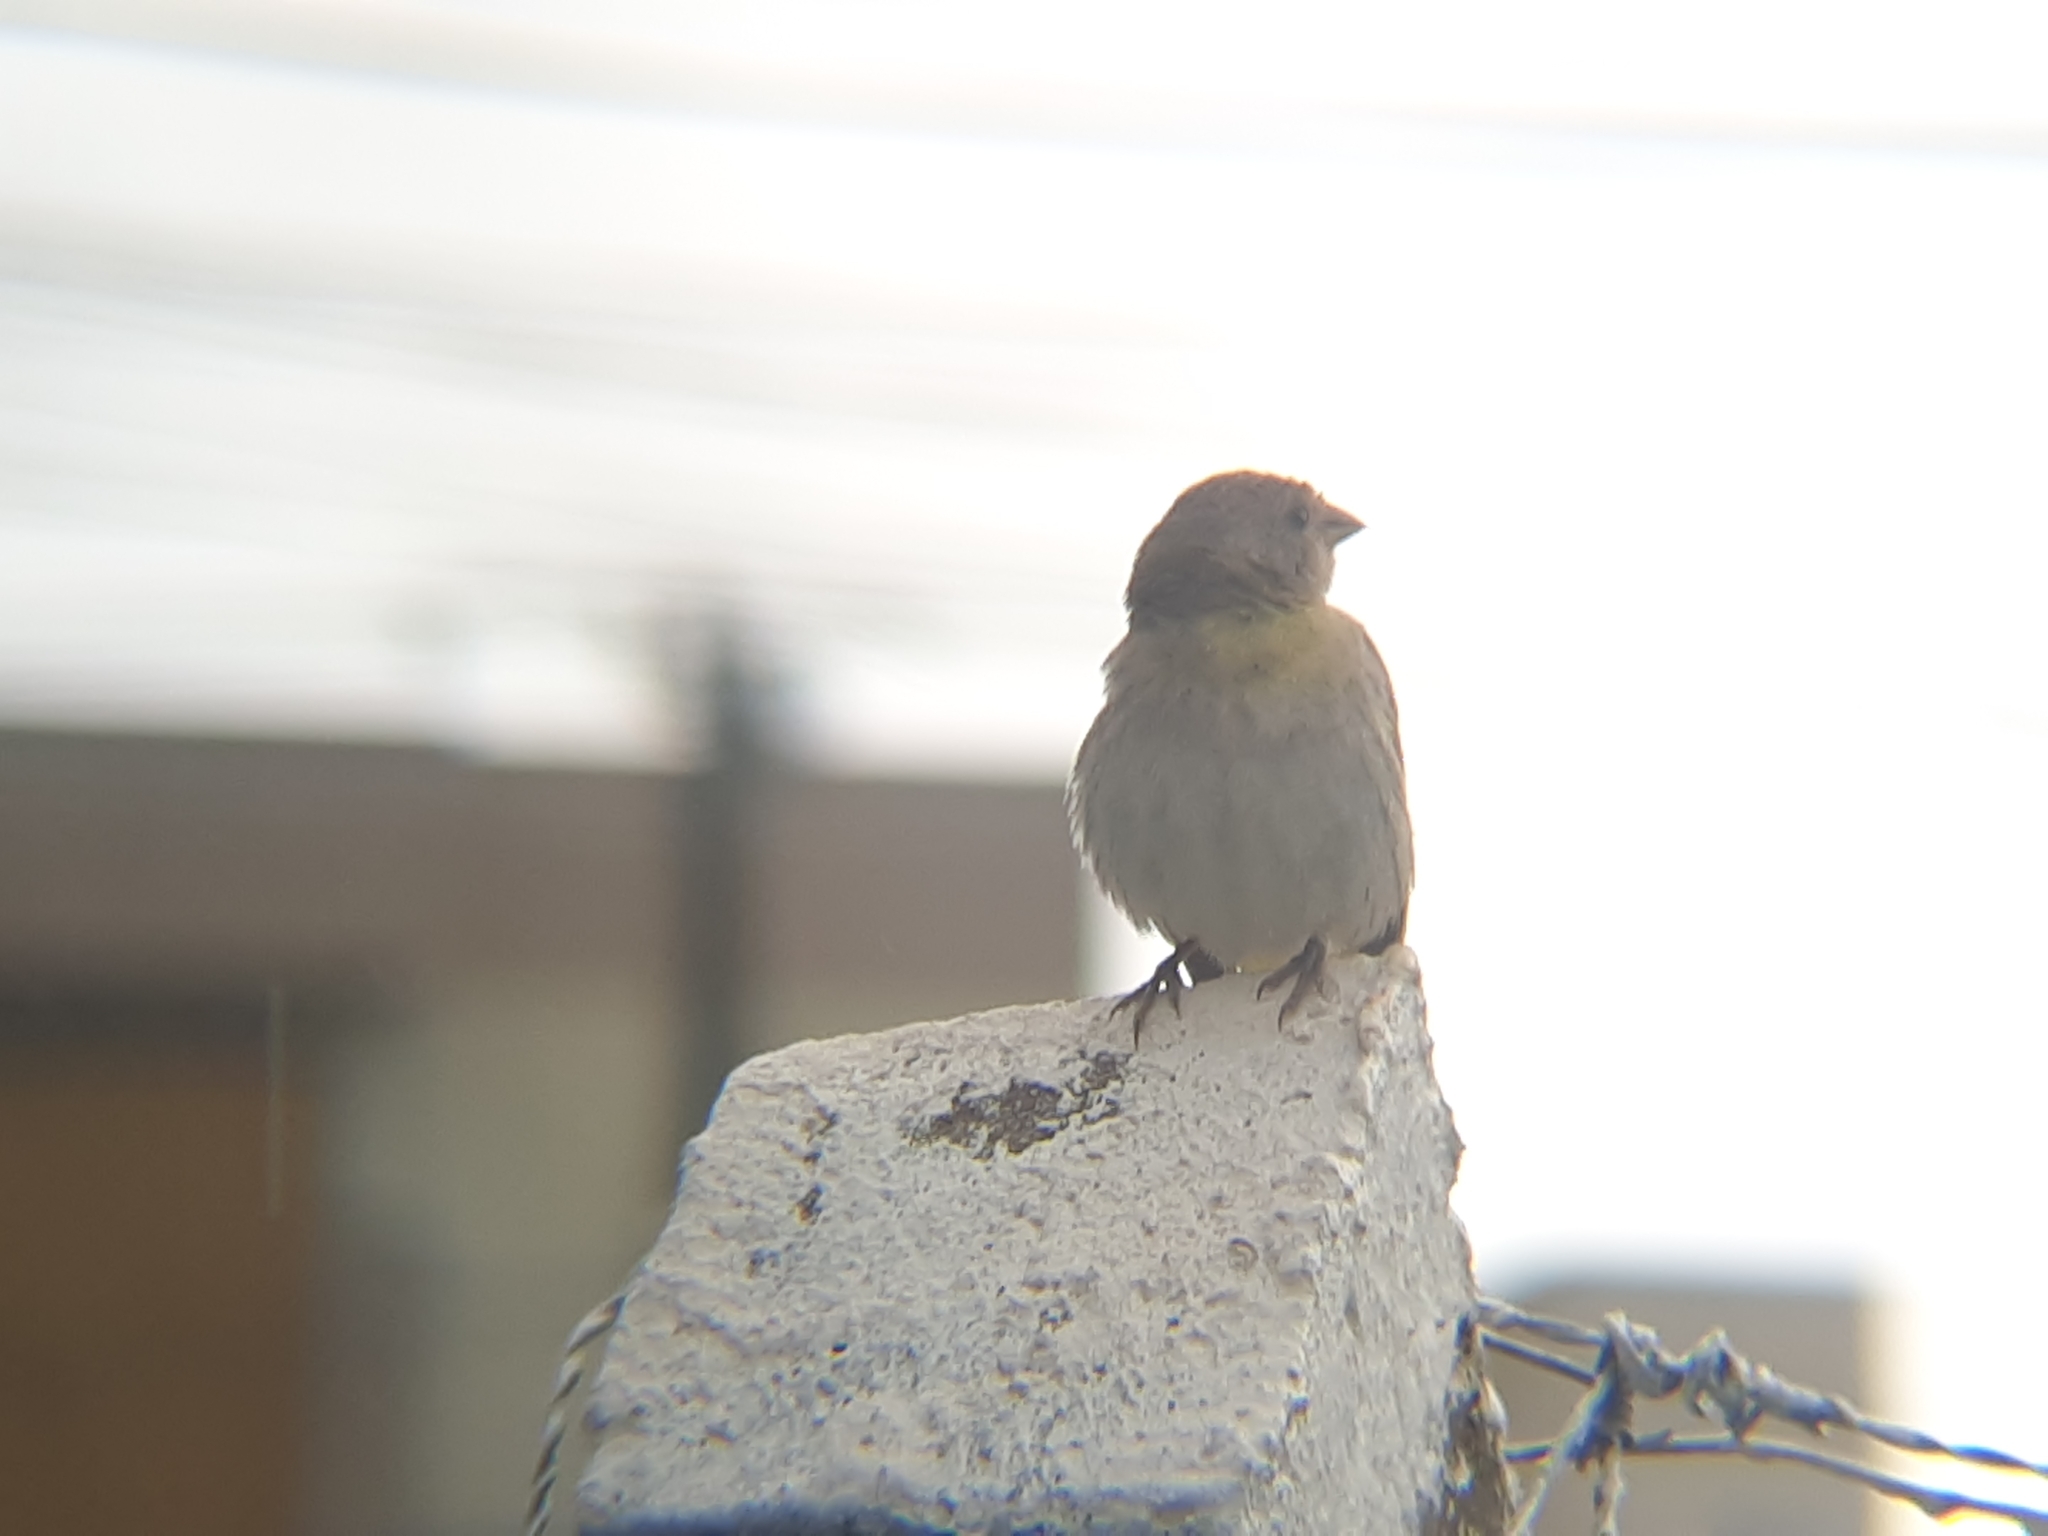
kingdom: Animalia
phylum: Chordata
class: Aves
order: Passeriformes
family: Thraupidae
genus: Sicalis
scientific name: Sicalis flaveola
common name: Saffron finch
